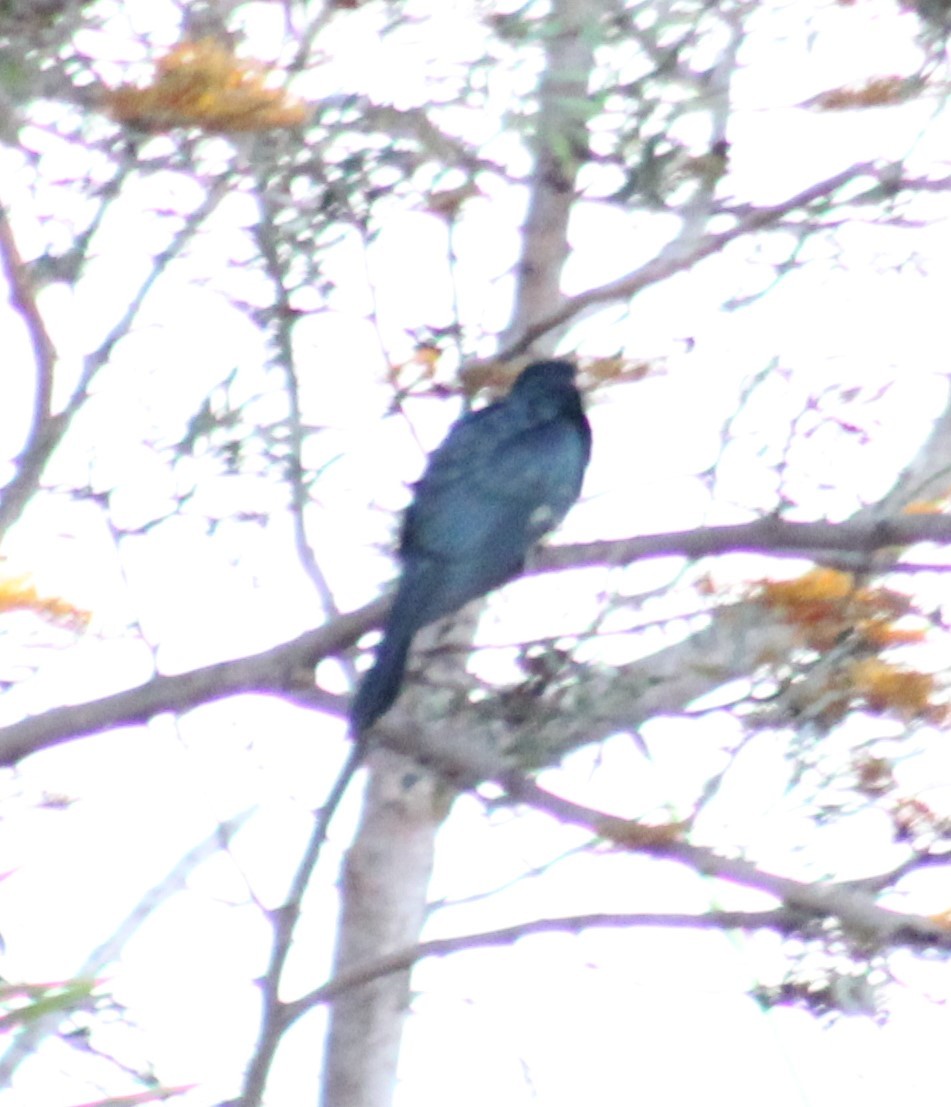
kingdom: Animalia
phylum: Chordata
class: Aves
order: Cuculiformes
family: Cuculidae
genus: Eudynamys
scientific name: Eudynamys orientalis
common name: Pacific koel
